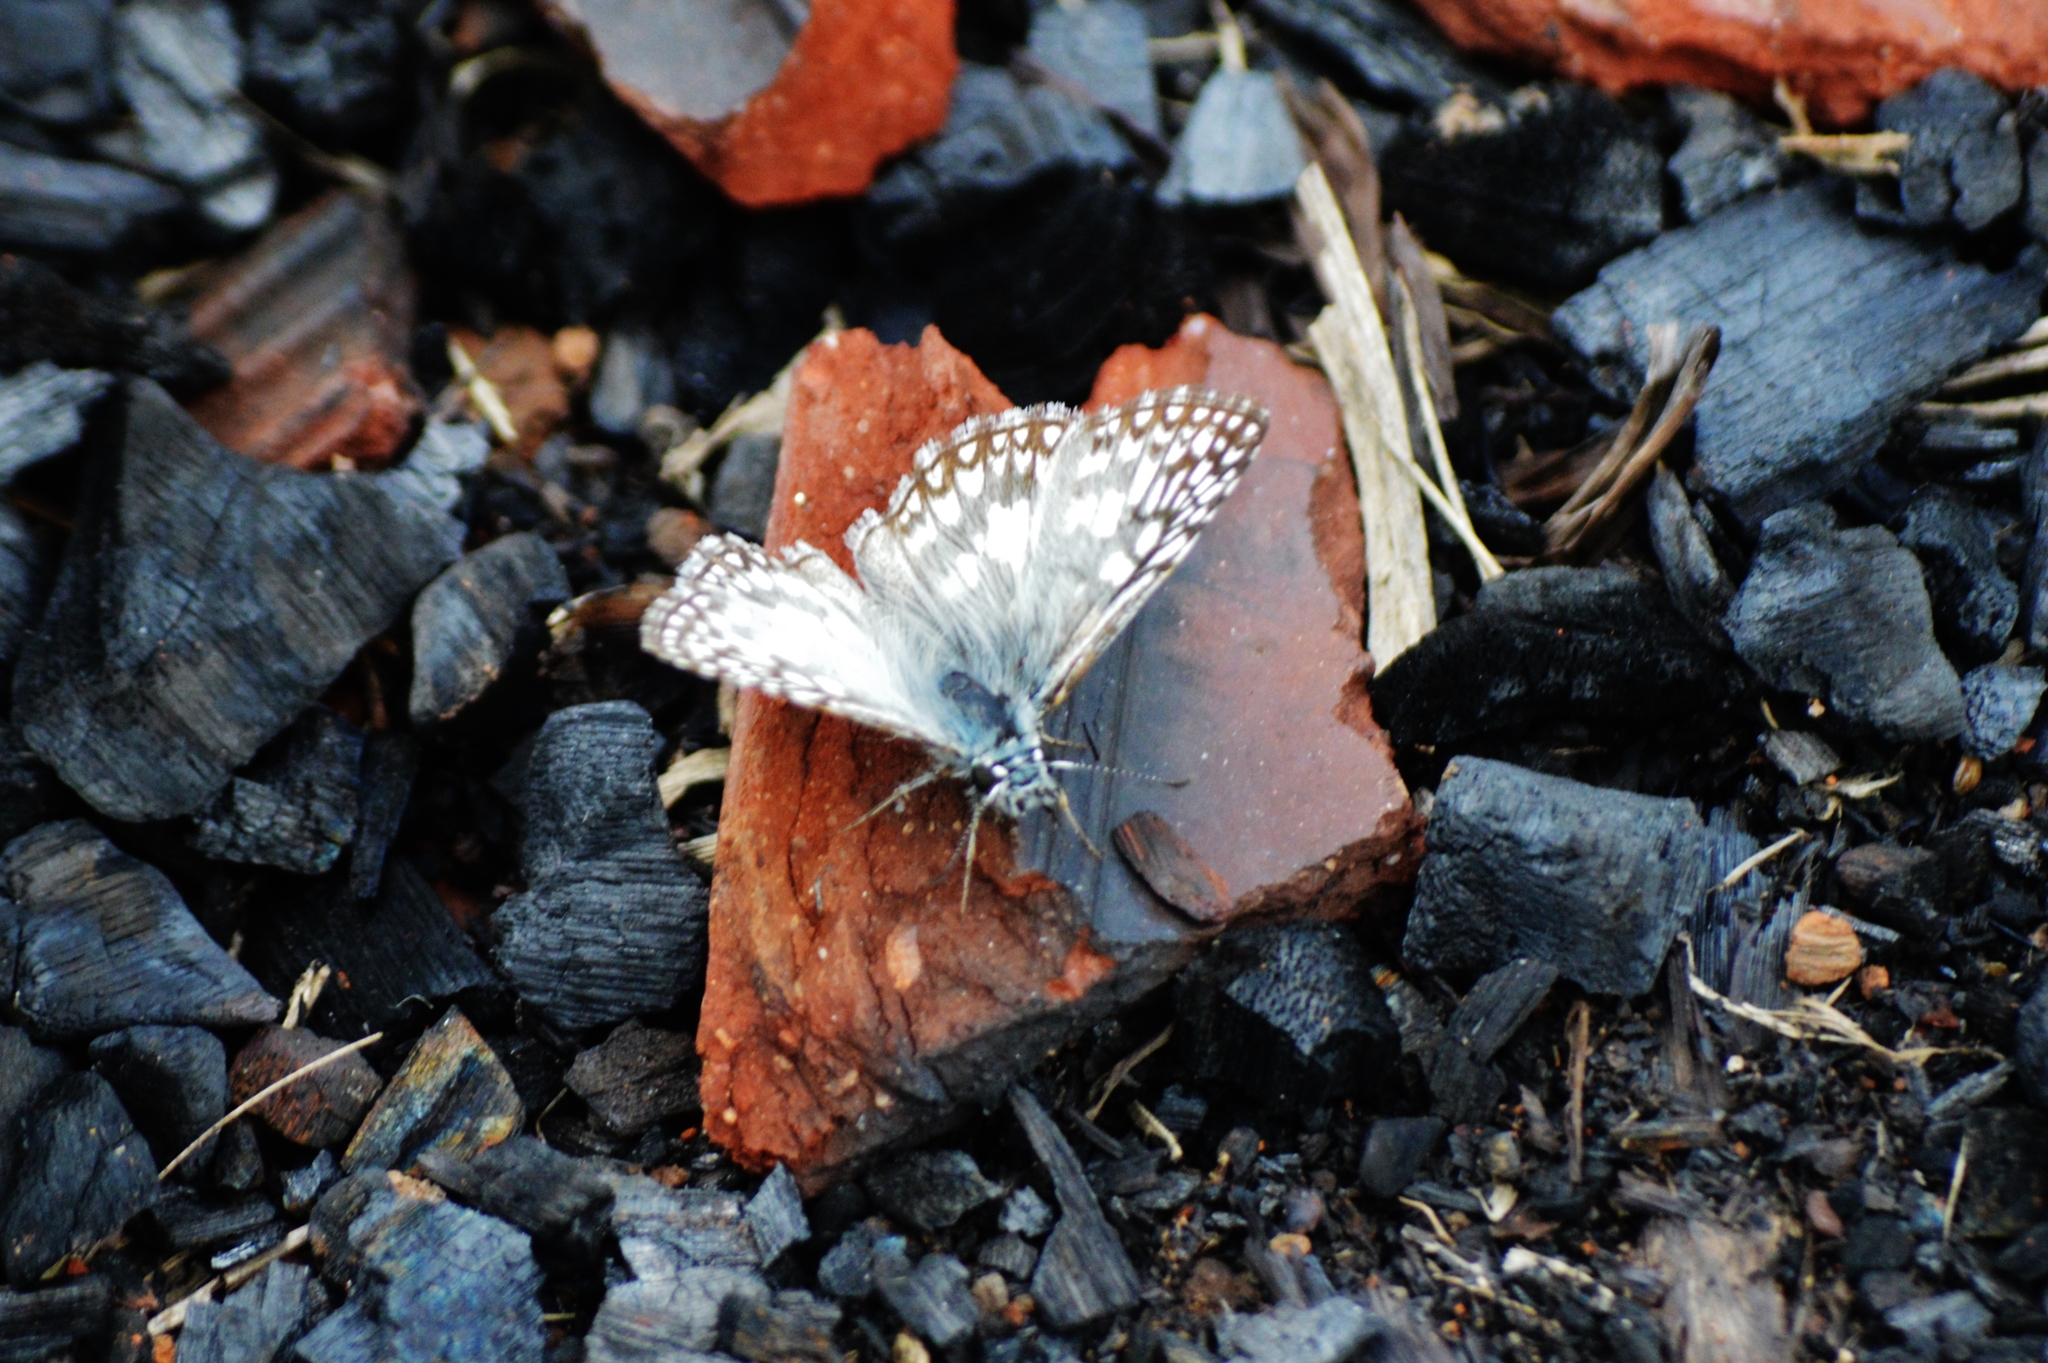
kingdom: Animalia
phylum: Arthropoda
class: Insecta
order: Lepidoptera
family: Hesperiidae
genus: Pyrgus
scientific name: Pyrgus oileus
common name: Tropical checkered-skipper
